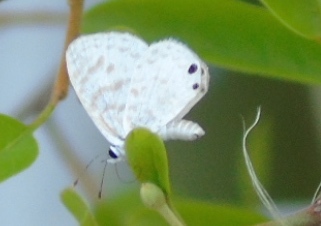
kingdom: Animalia
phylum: Arthropoda
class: Insecta
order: Lepidoptera
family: Lycaenidae
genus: Leptotes
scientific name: Leptotes theonus
